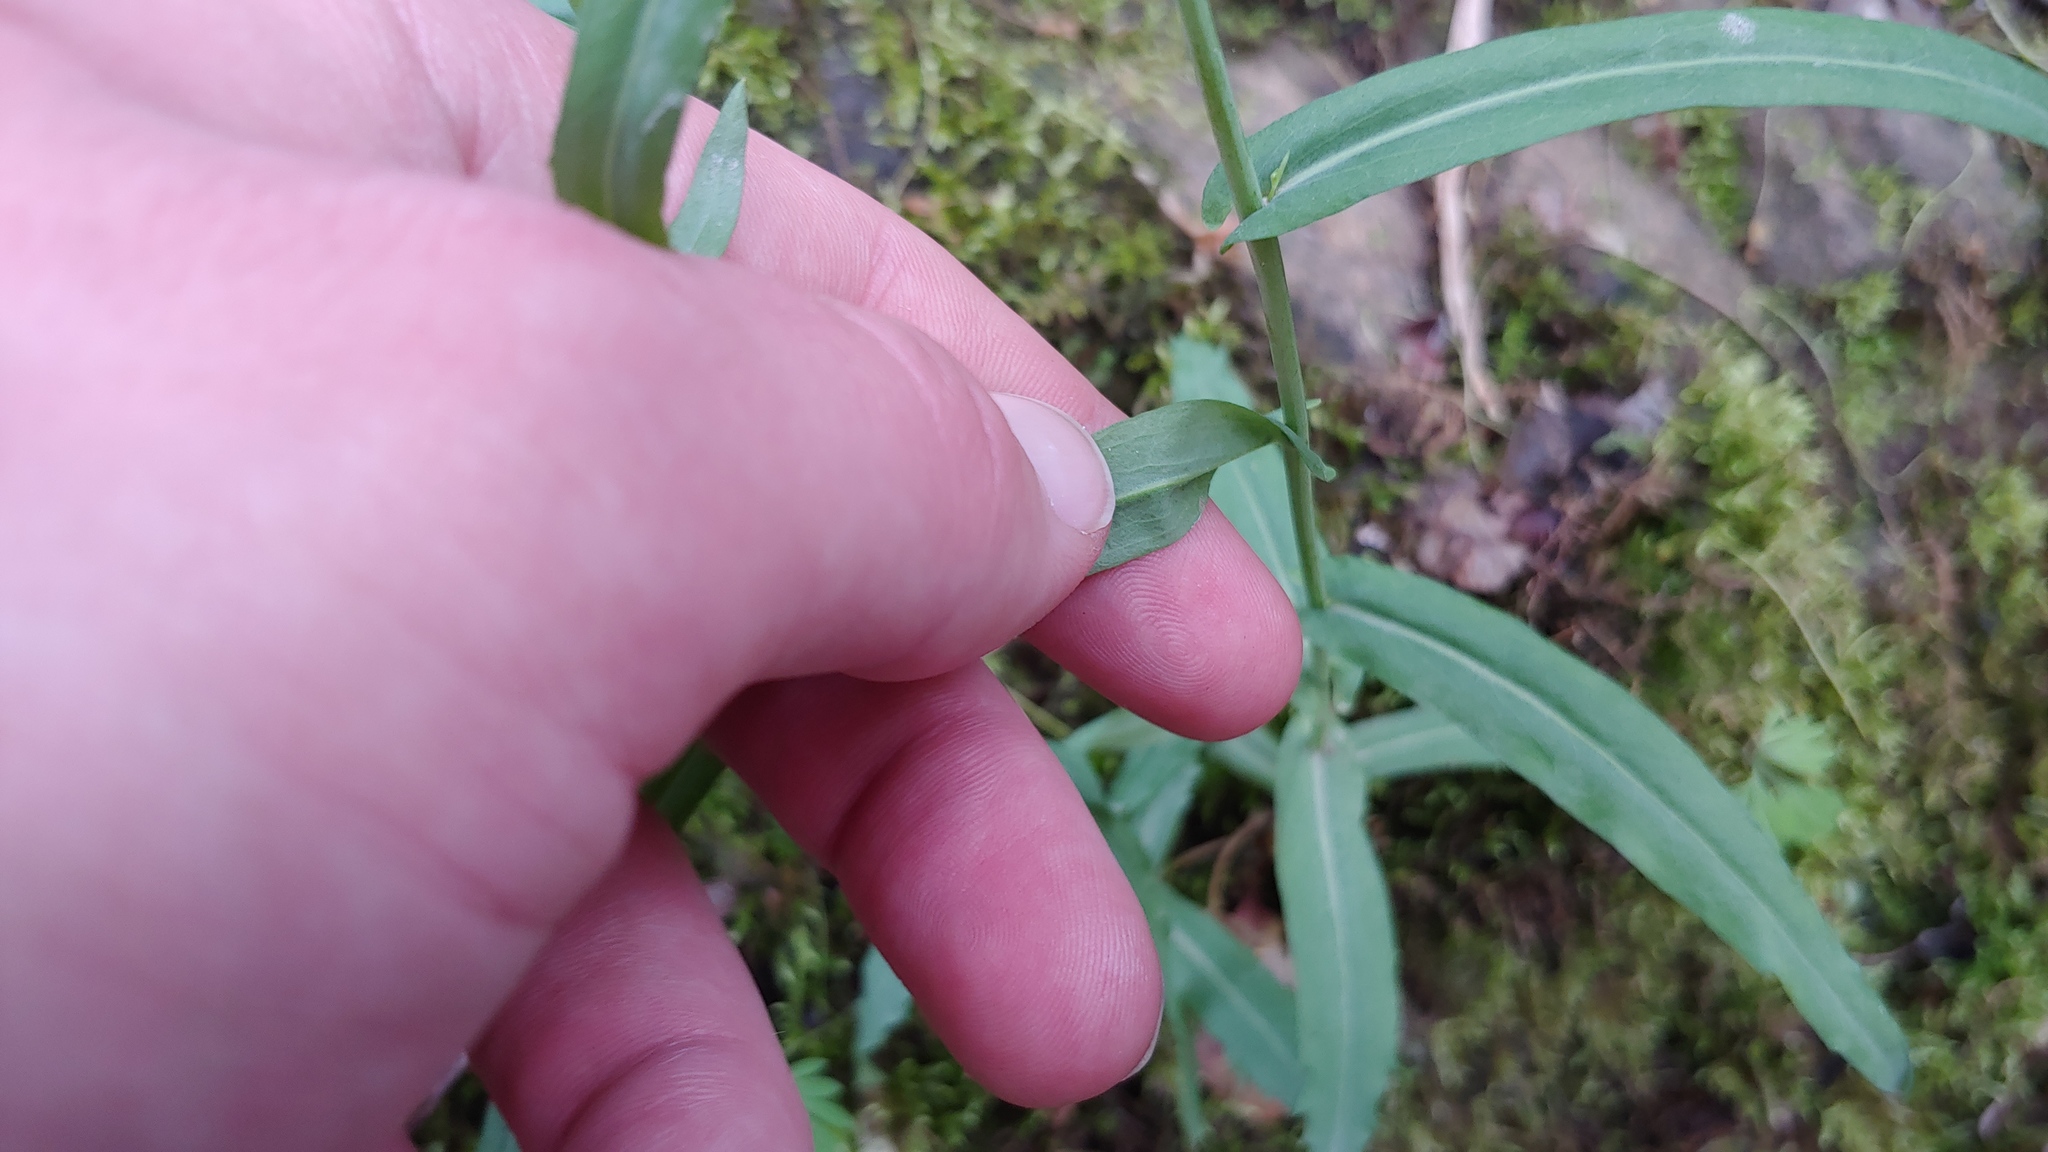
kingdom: Plantae
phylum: Tracheophyta
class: Magnoliopsida
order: Brassicales
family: Brassicaceae
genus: Borodinia
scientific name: Borodinia laevigata
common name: Smooth rockcress
